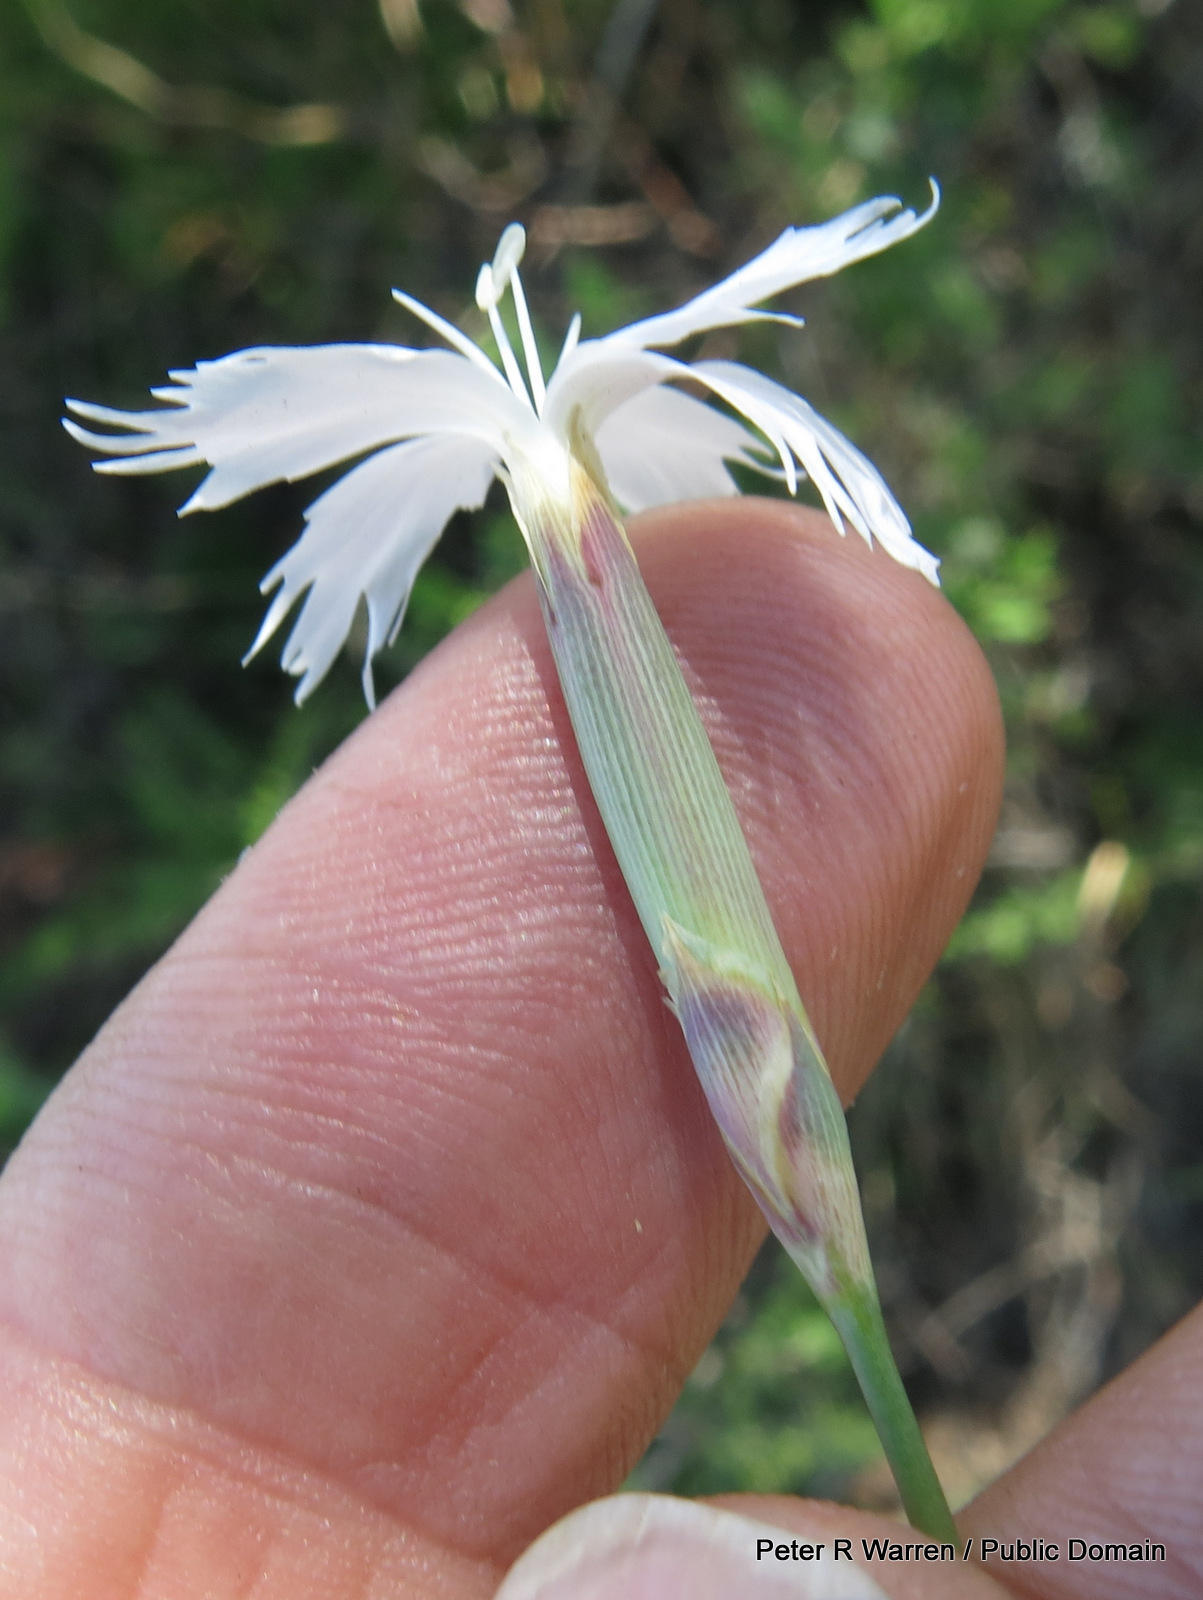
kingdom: Plantae
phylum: Tracheophyta
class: Magnoliopsida
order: Caryophyllales
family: Caryophyllaceae
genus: Dianthus
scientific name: Dianthus mooiensis
